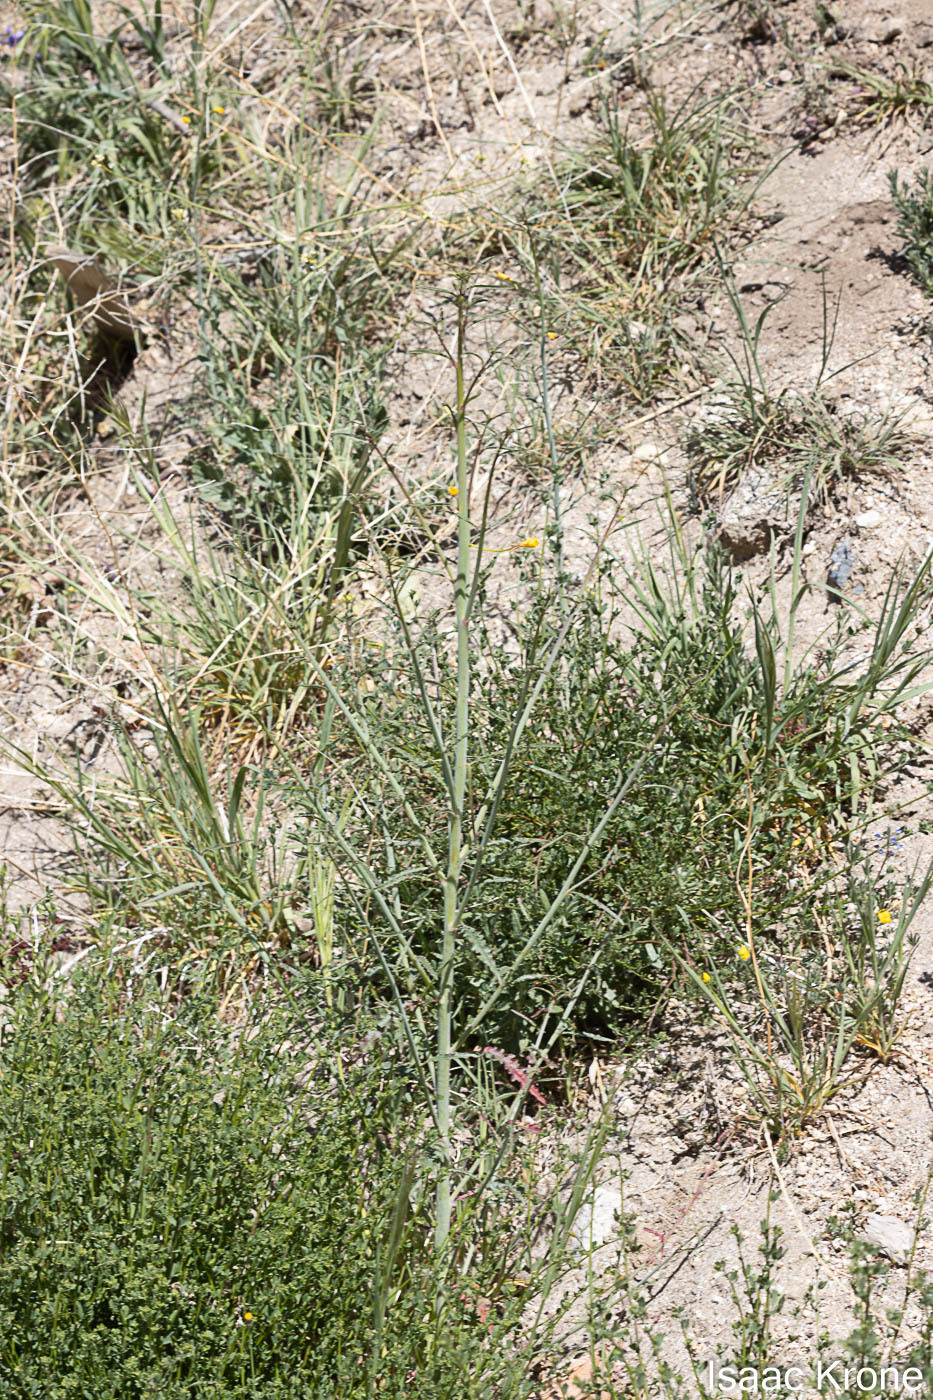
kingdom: Plantae
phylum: Tracheophyta
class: Magnoliopsida
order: Myrtales
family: Onagraceae
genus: Eulobus
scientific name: Eulobus californicus
